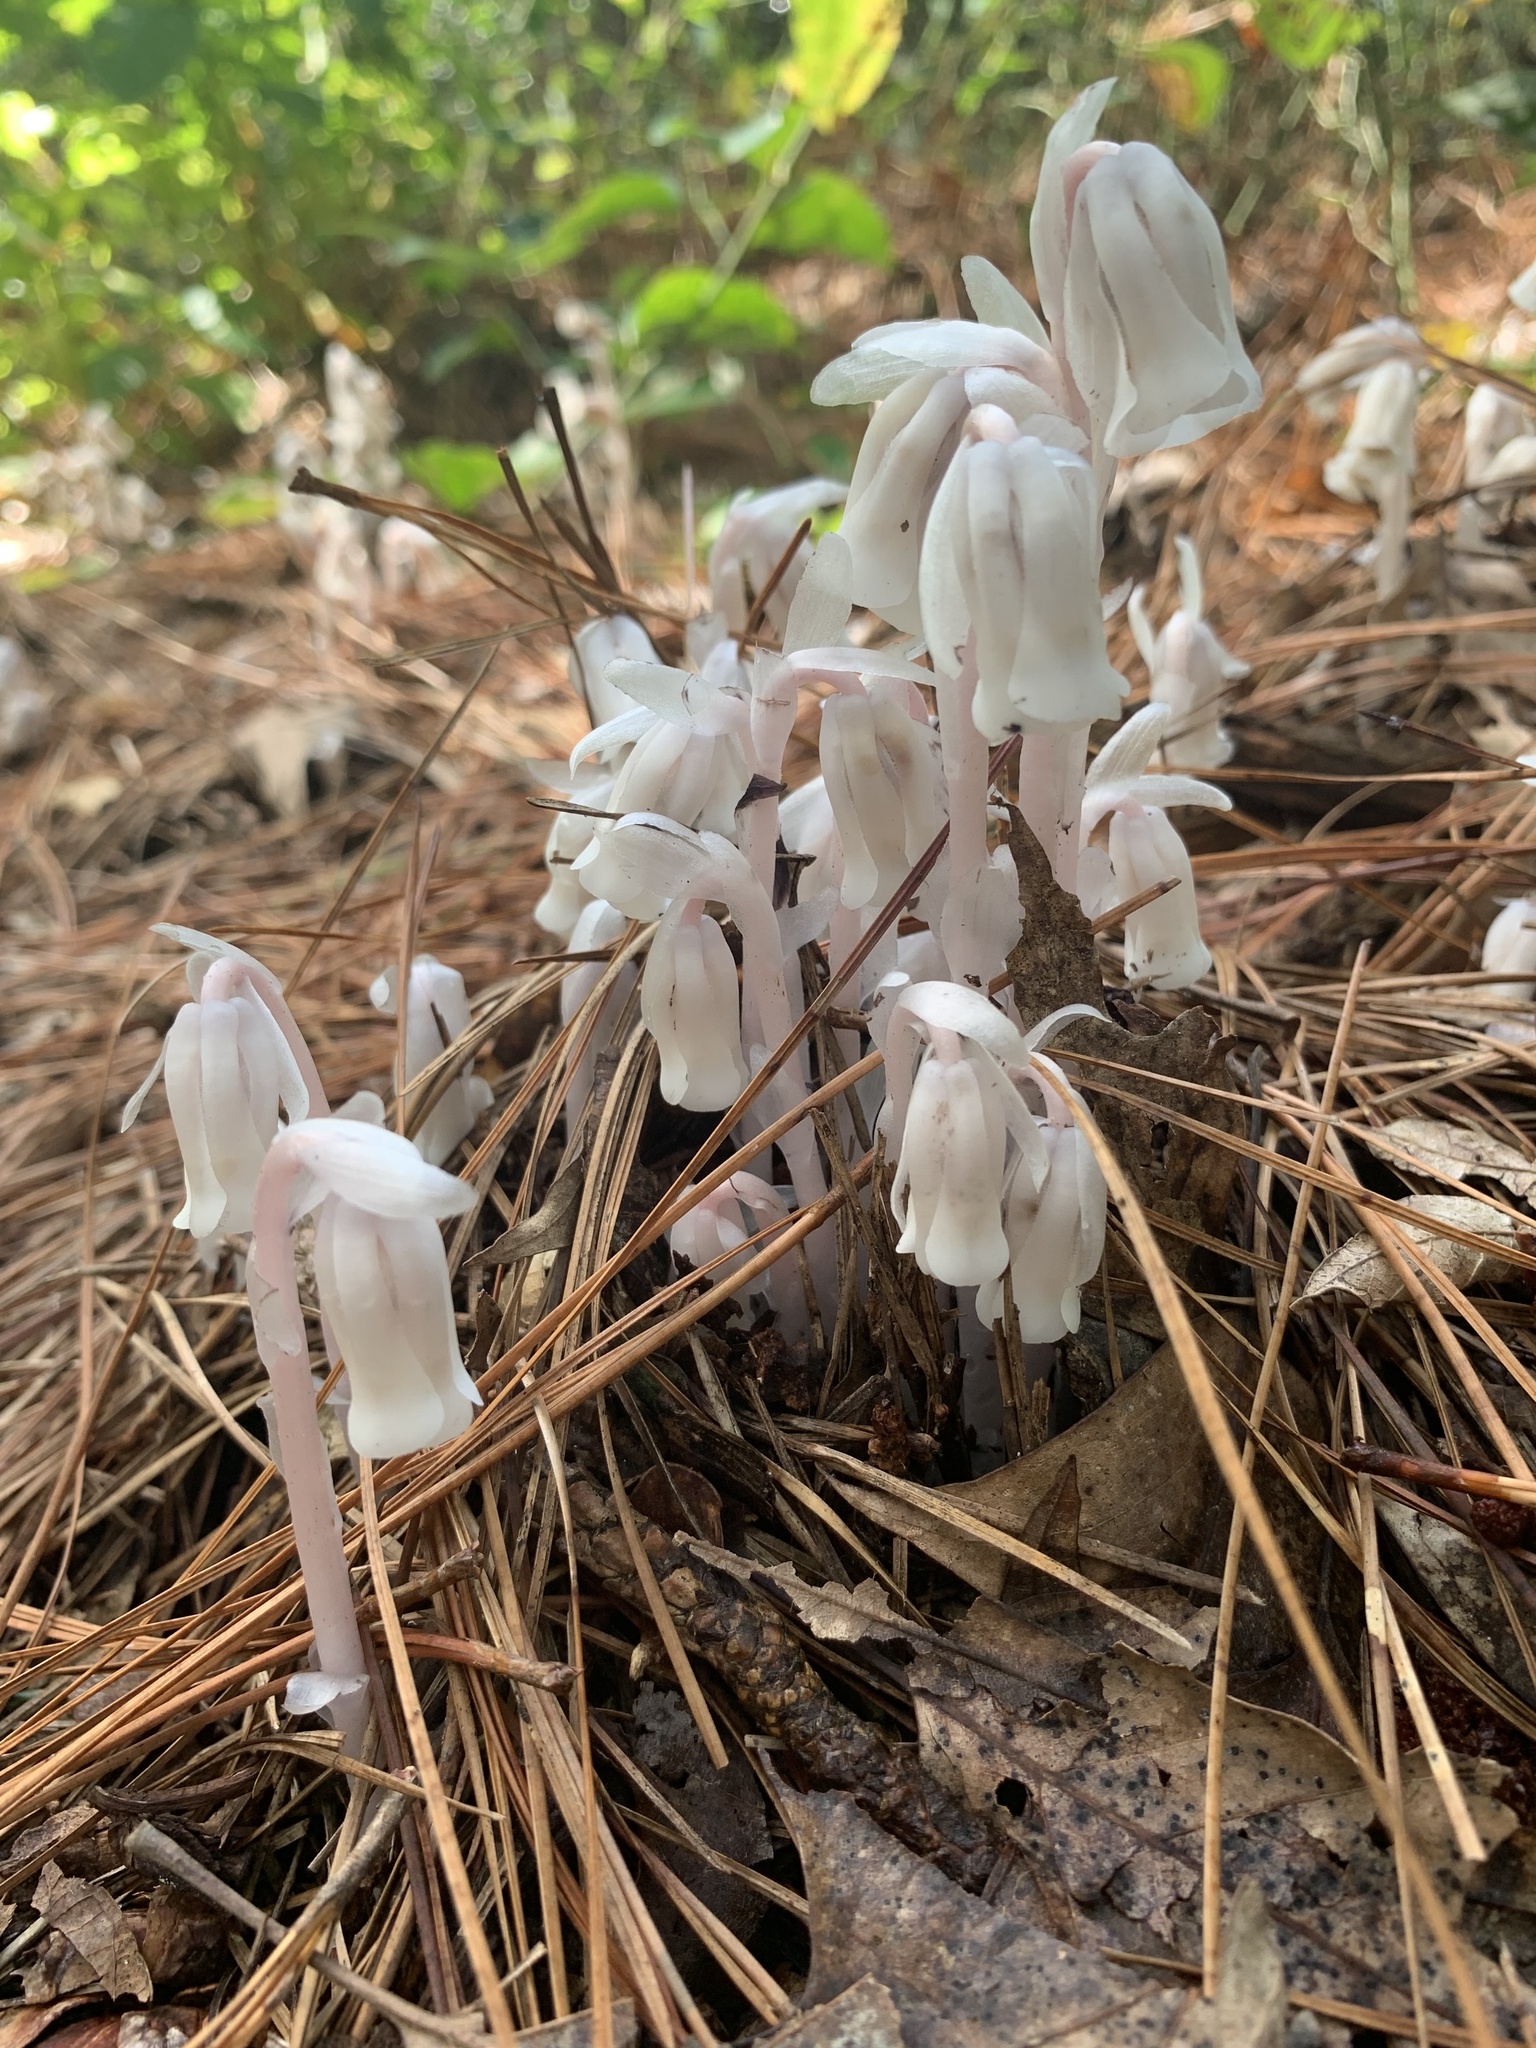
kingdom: Plantae
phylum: Tracheophyta
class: Magnoliopsida
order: Ericales
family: Ericaceae
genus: Monotropa
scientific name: Monotropa uniflora
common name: Convulsion root
